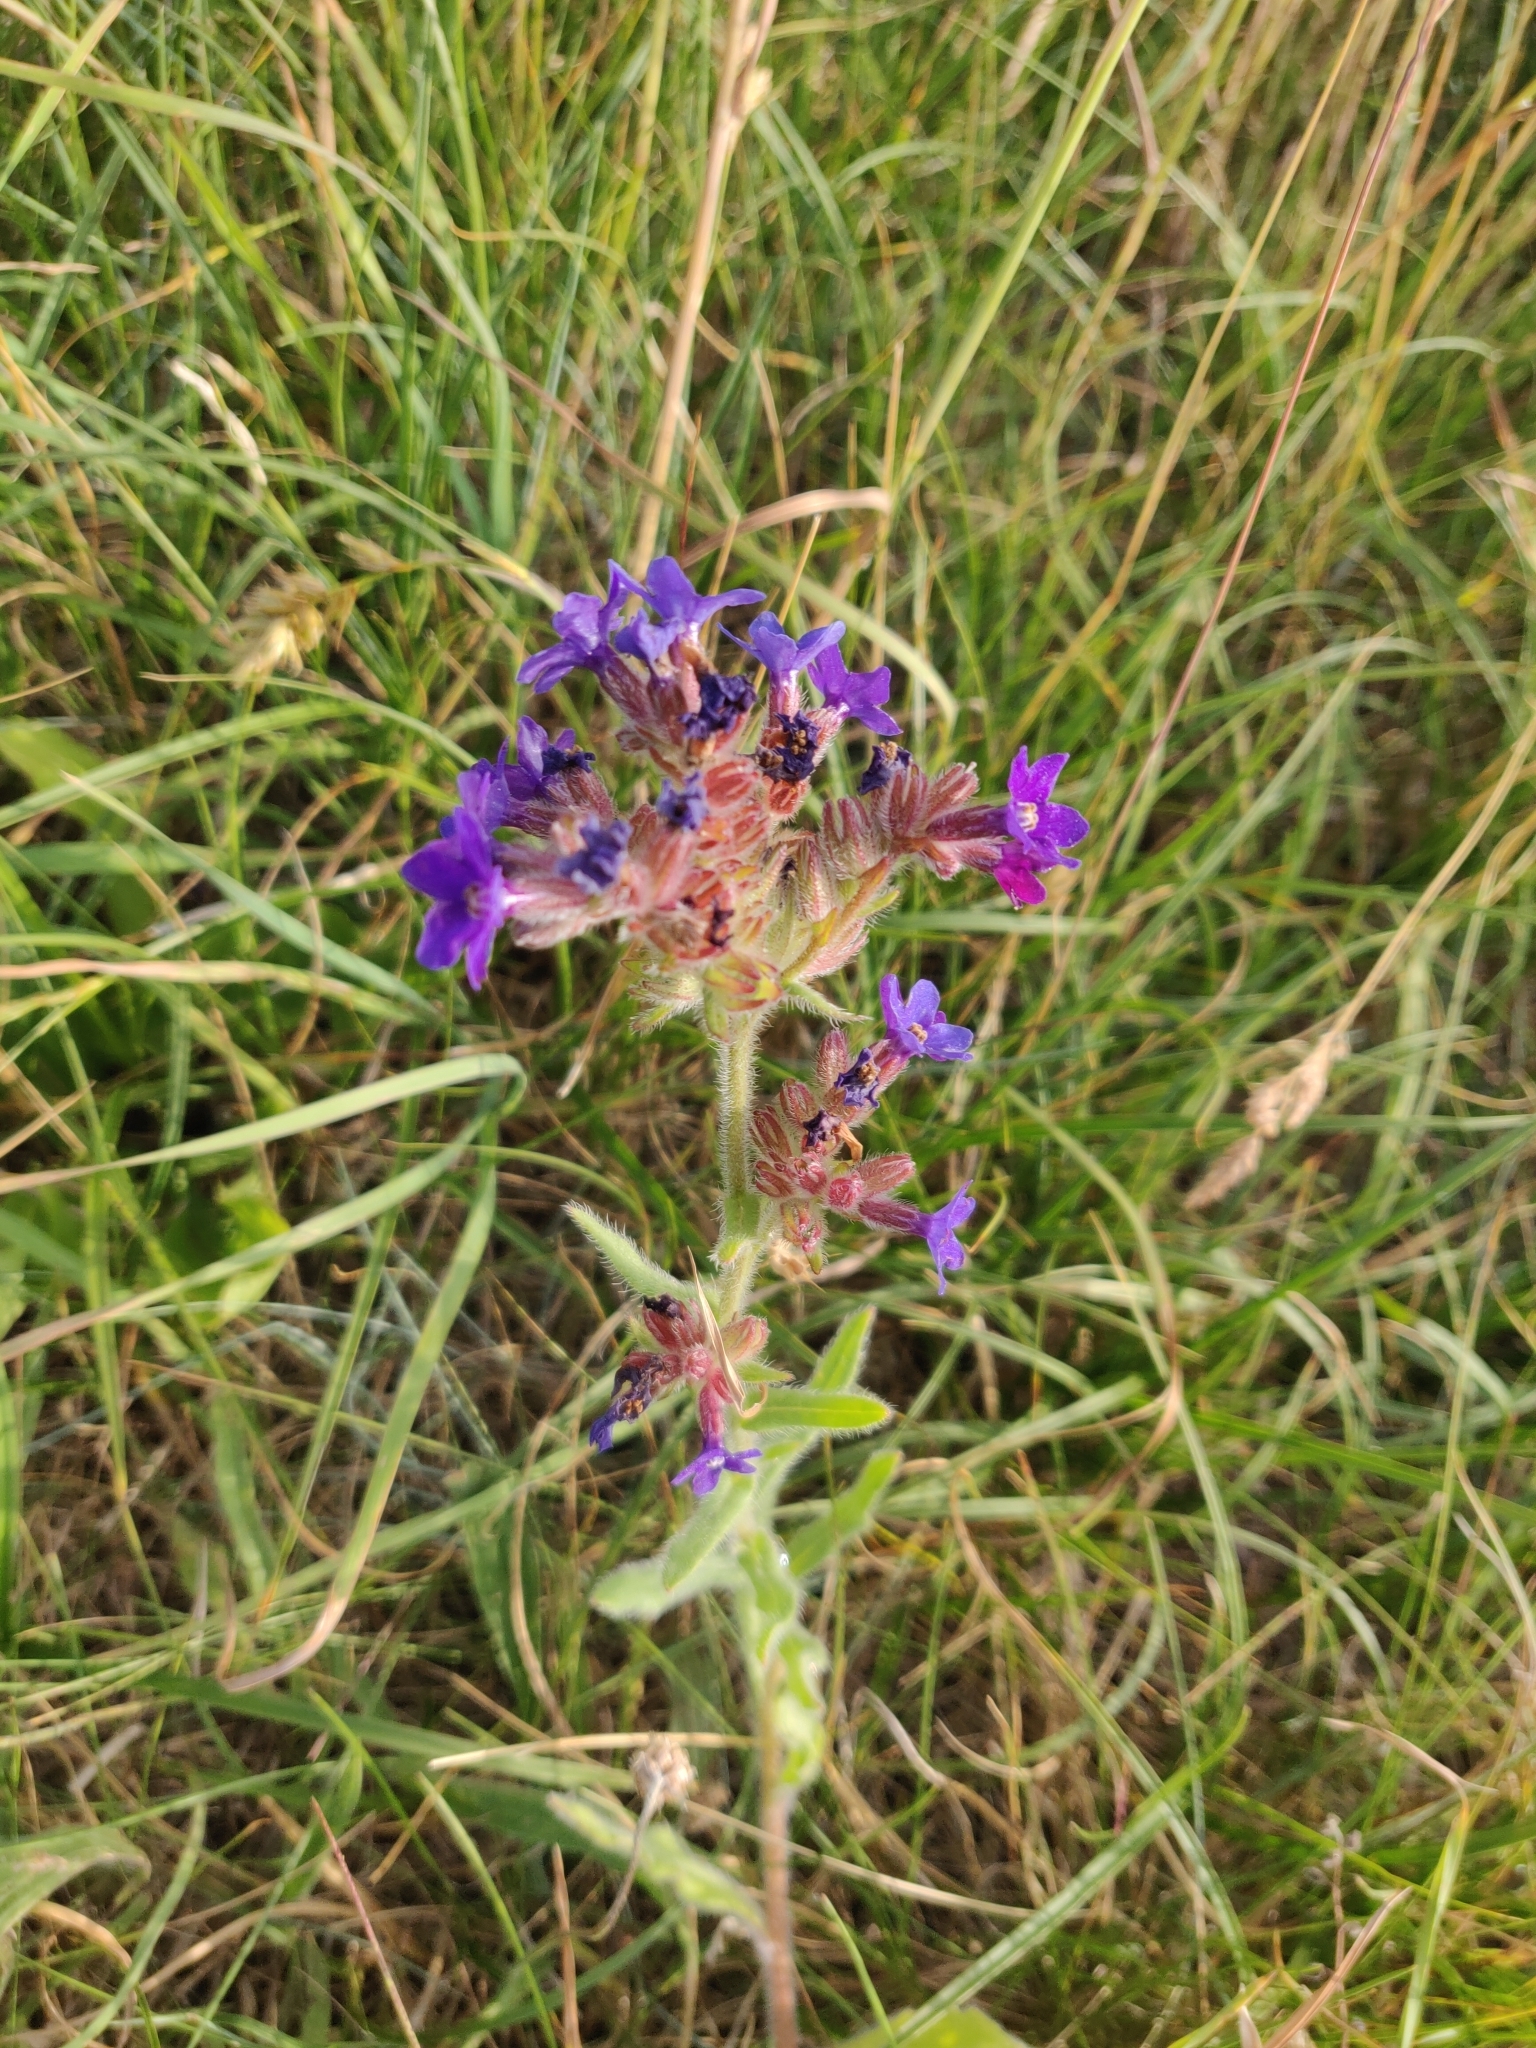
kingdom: Plantae
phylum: Tracheophyta
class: Magnoliopsida
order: Boraginales
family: Boraginaceae
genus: Anchusa
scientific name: Anchusa officinalis
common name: Alkanet
